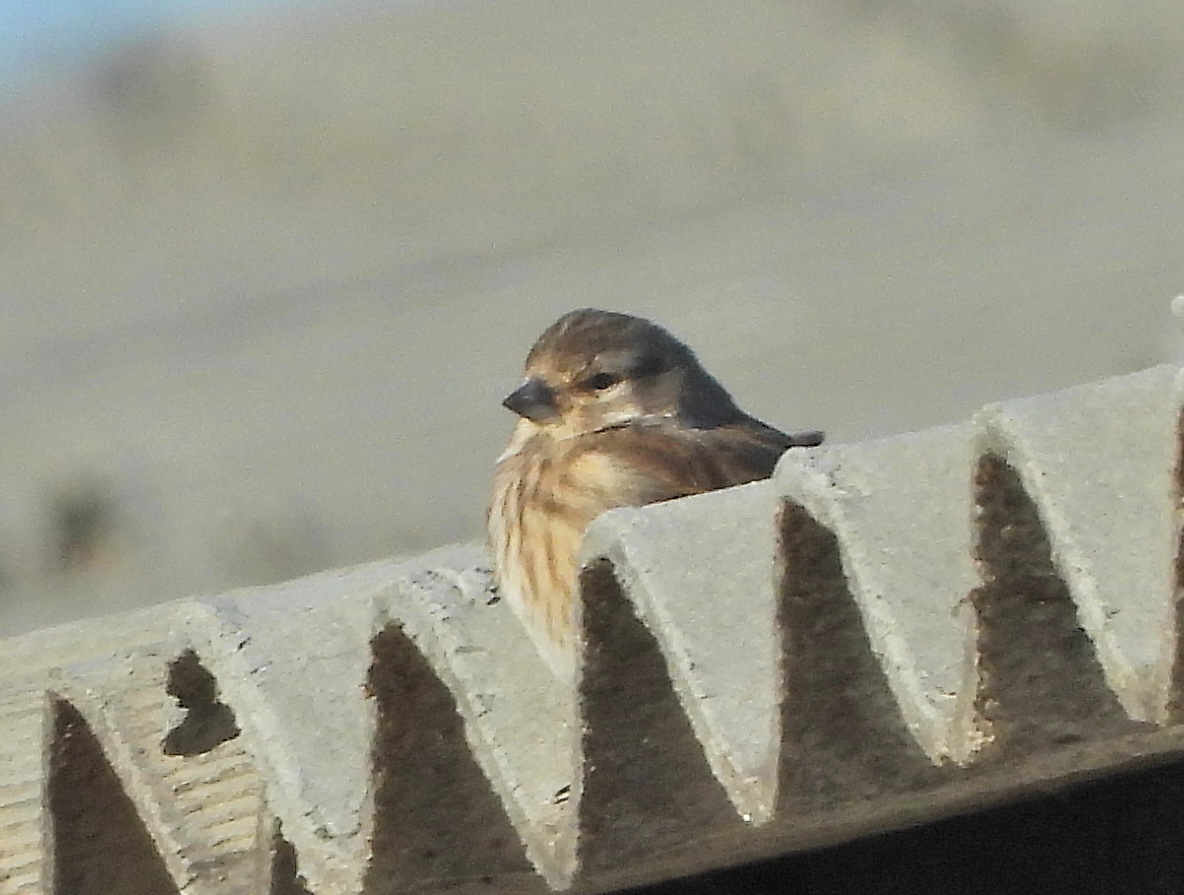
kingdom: Animalia
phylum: Chordata
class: Aves
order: Passeriformes
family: Fringillidae
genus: Linaria
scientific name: Linaria cannabina
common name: Common linnet
